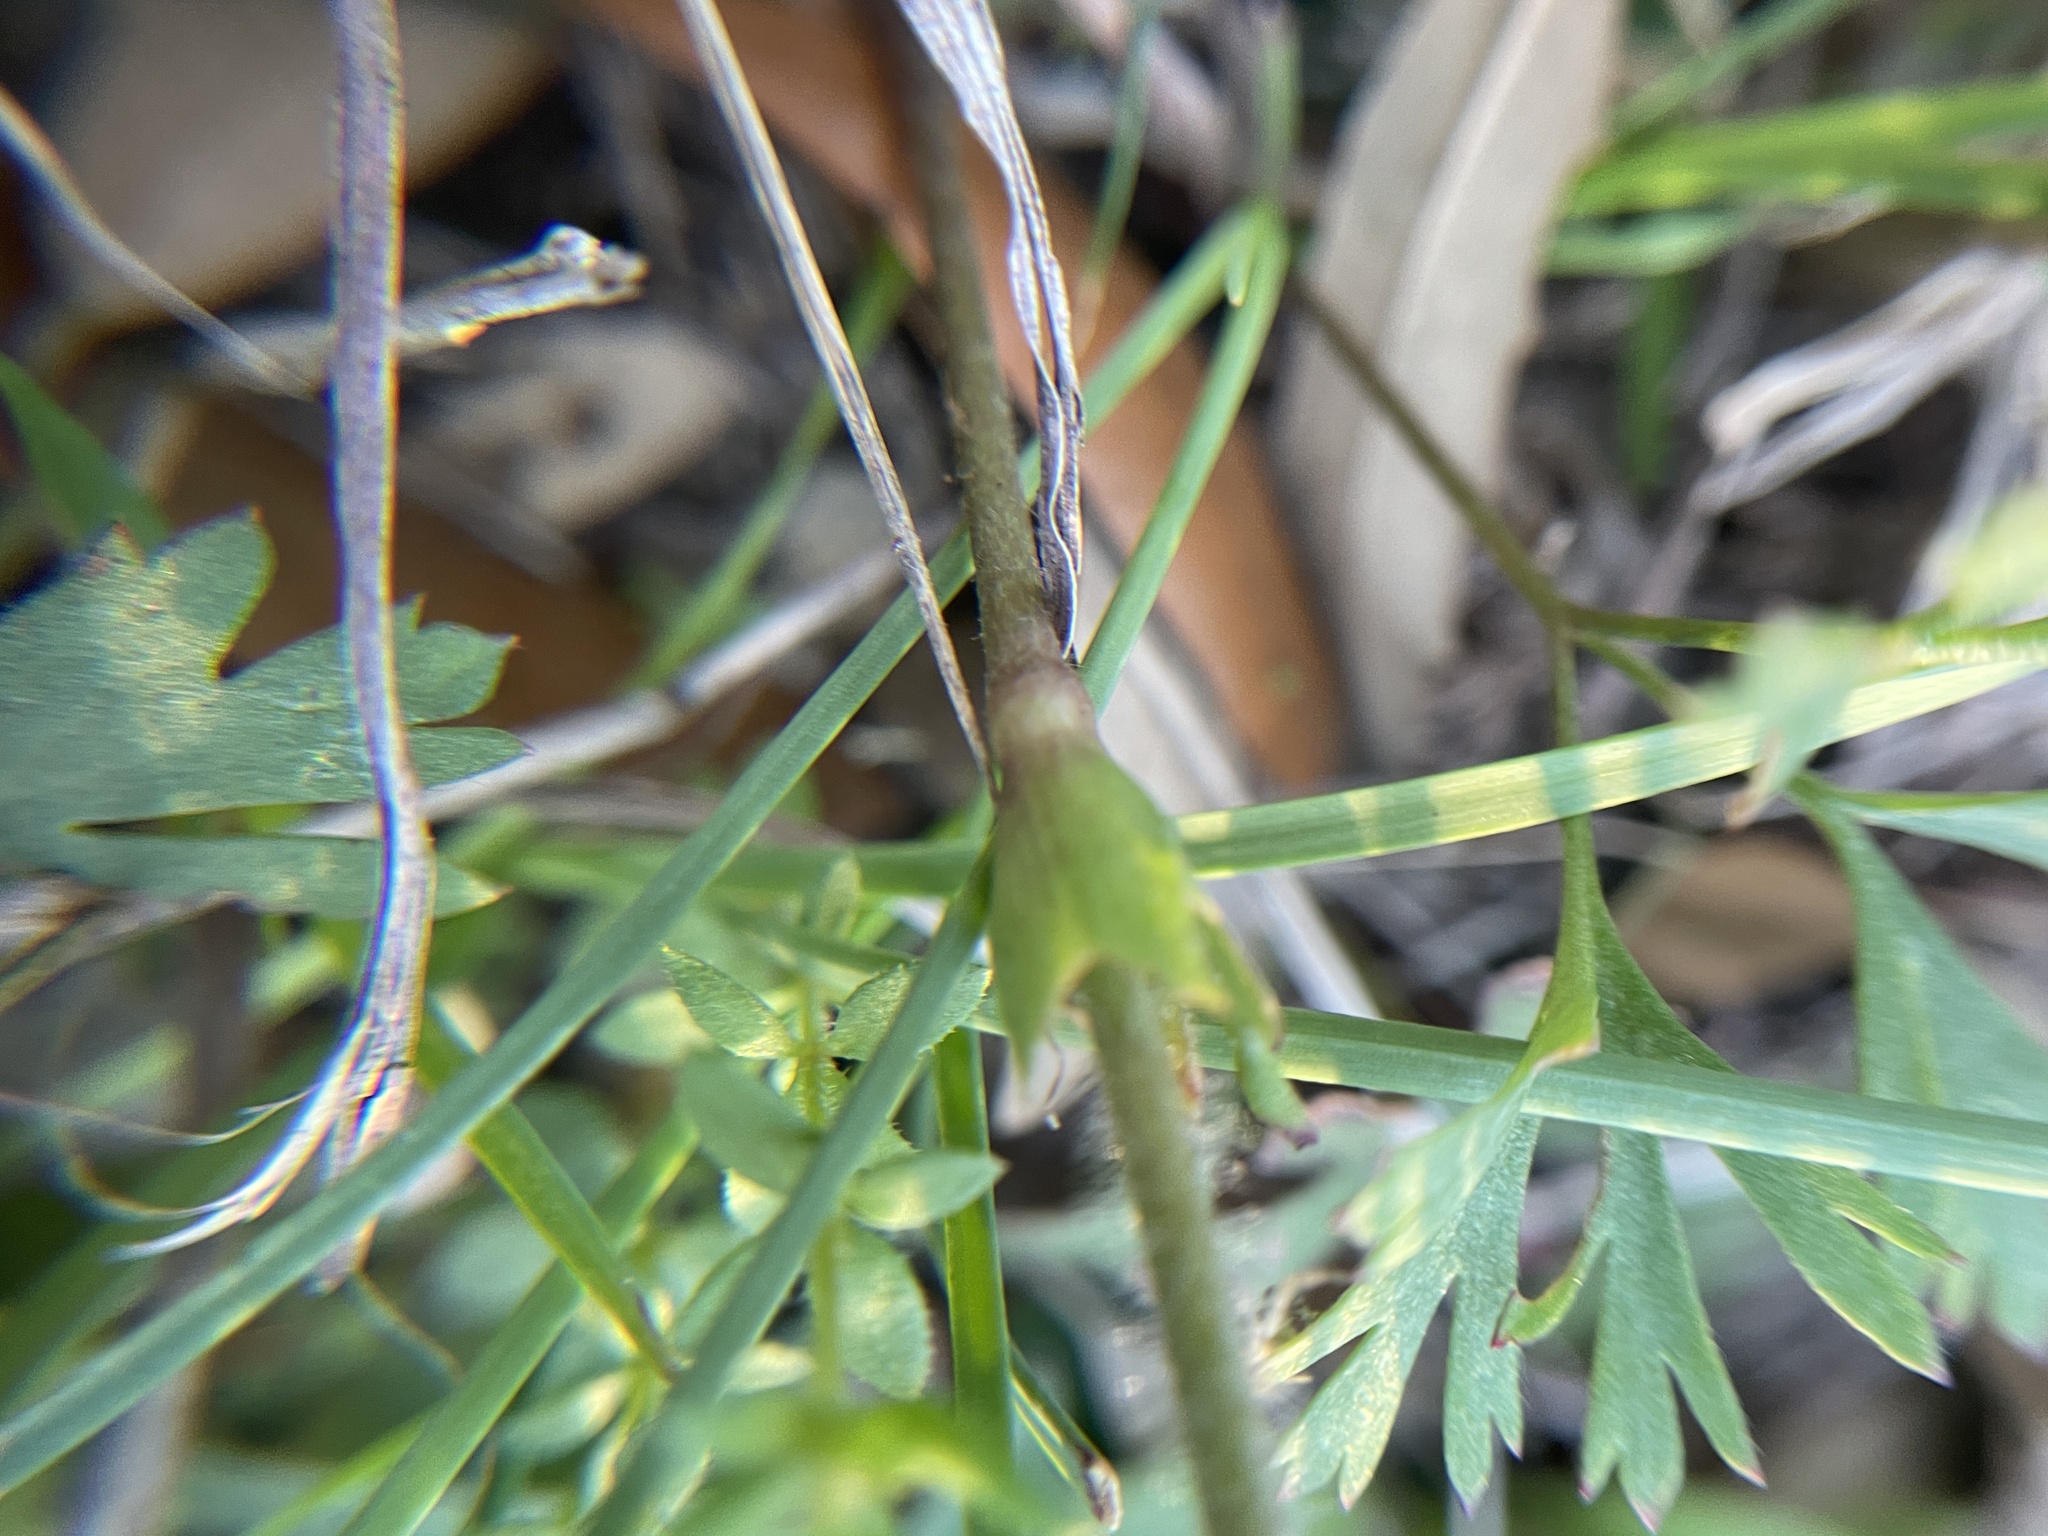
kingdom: Plantae
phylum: Tracheophyta
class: Magnoliopsida
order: Ranunculales
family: Ranunculaceae
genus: Anemone
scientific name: Anemone caroliniana
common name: Carolina anemone
